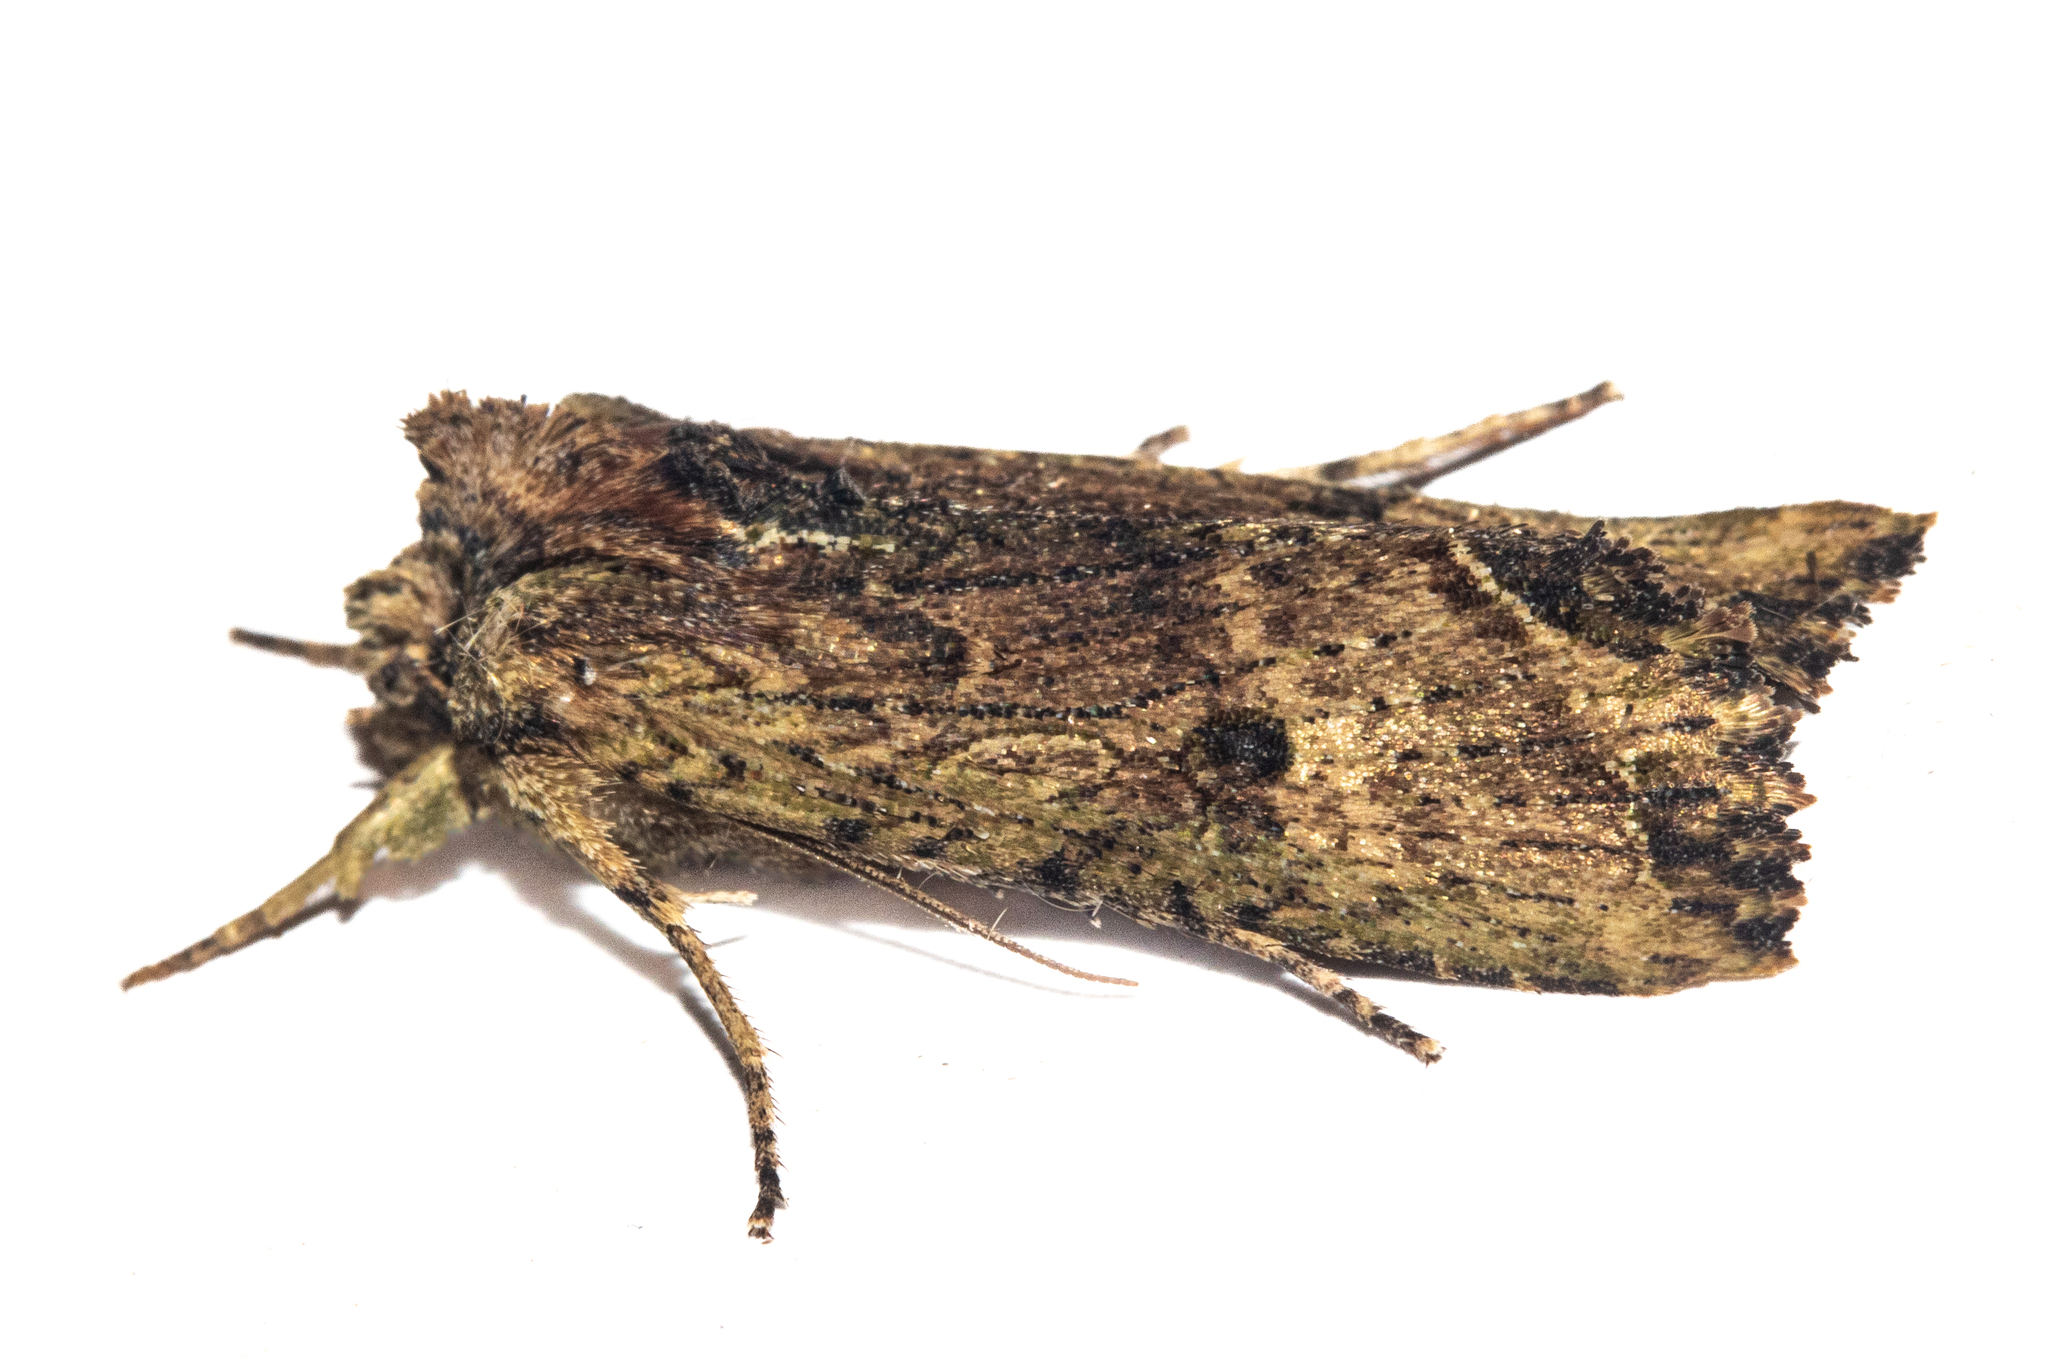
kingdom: Animalia
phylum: Arthropoda
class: Insecta
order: Lepidoptera
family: Noctuidae
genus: Meterana
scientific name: Meterana coeleno
